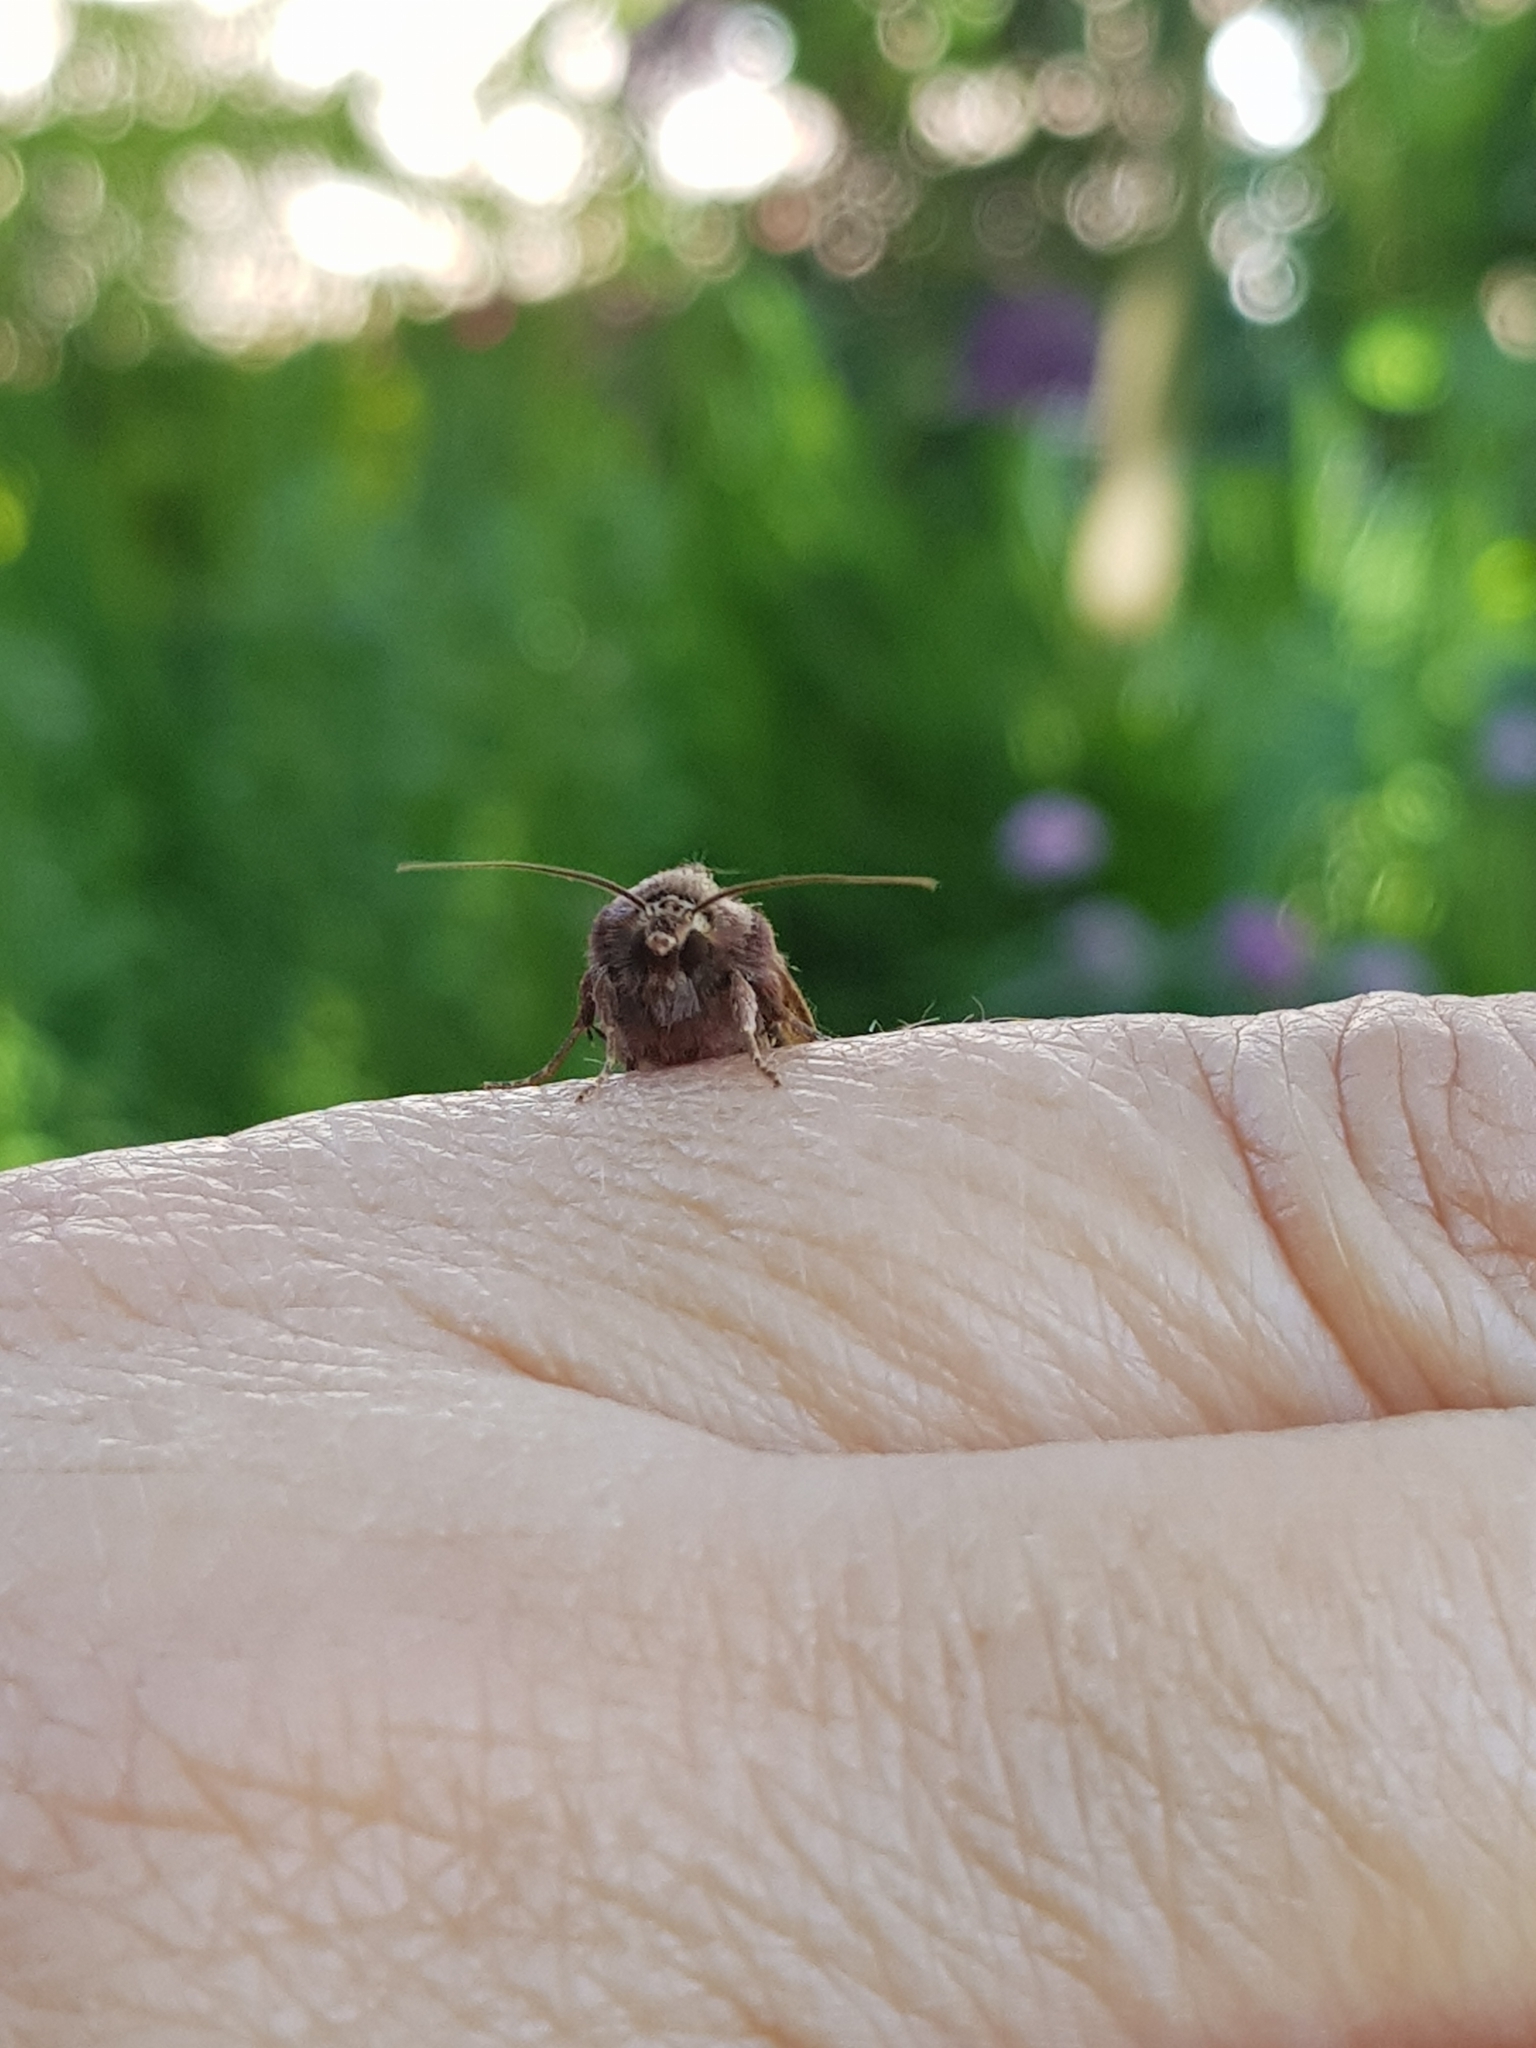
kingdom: Animalia
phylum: Arthropoda
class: Insecta
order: Lepidoptera
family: Noctuidae
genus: Ochropleura
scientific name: Ochropleura plecta
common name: Flame shoulder
